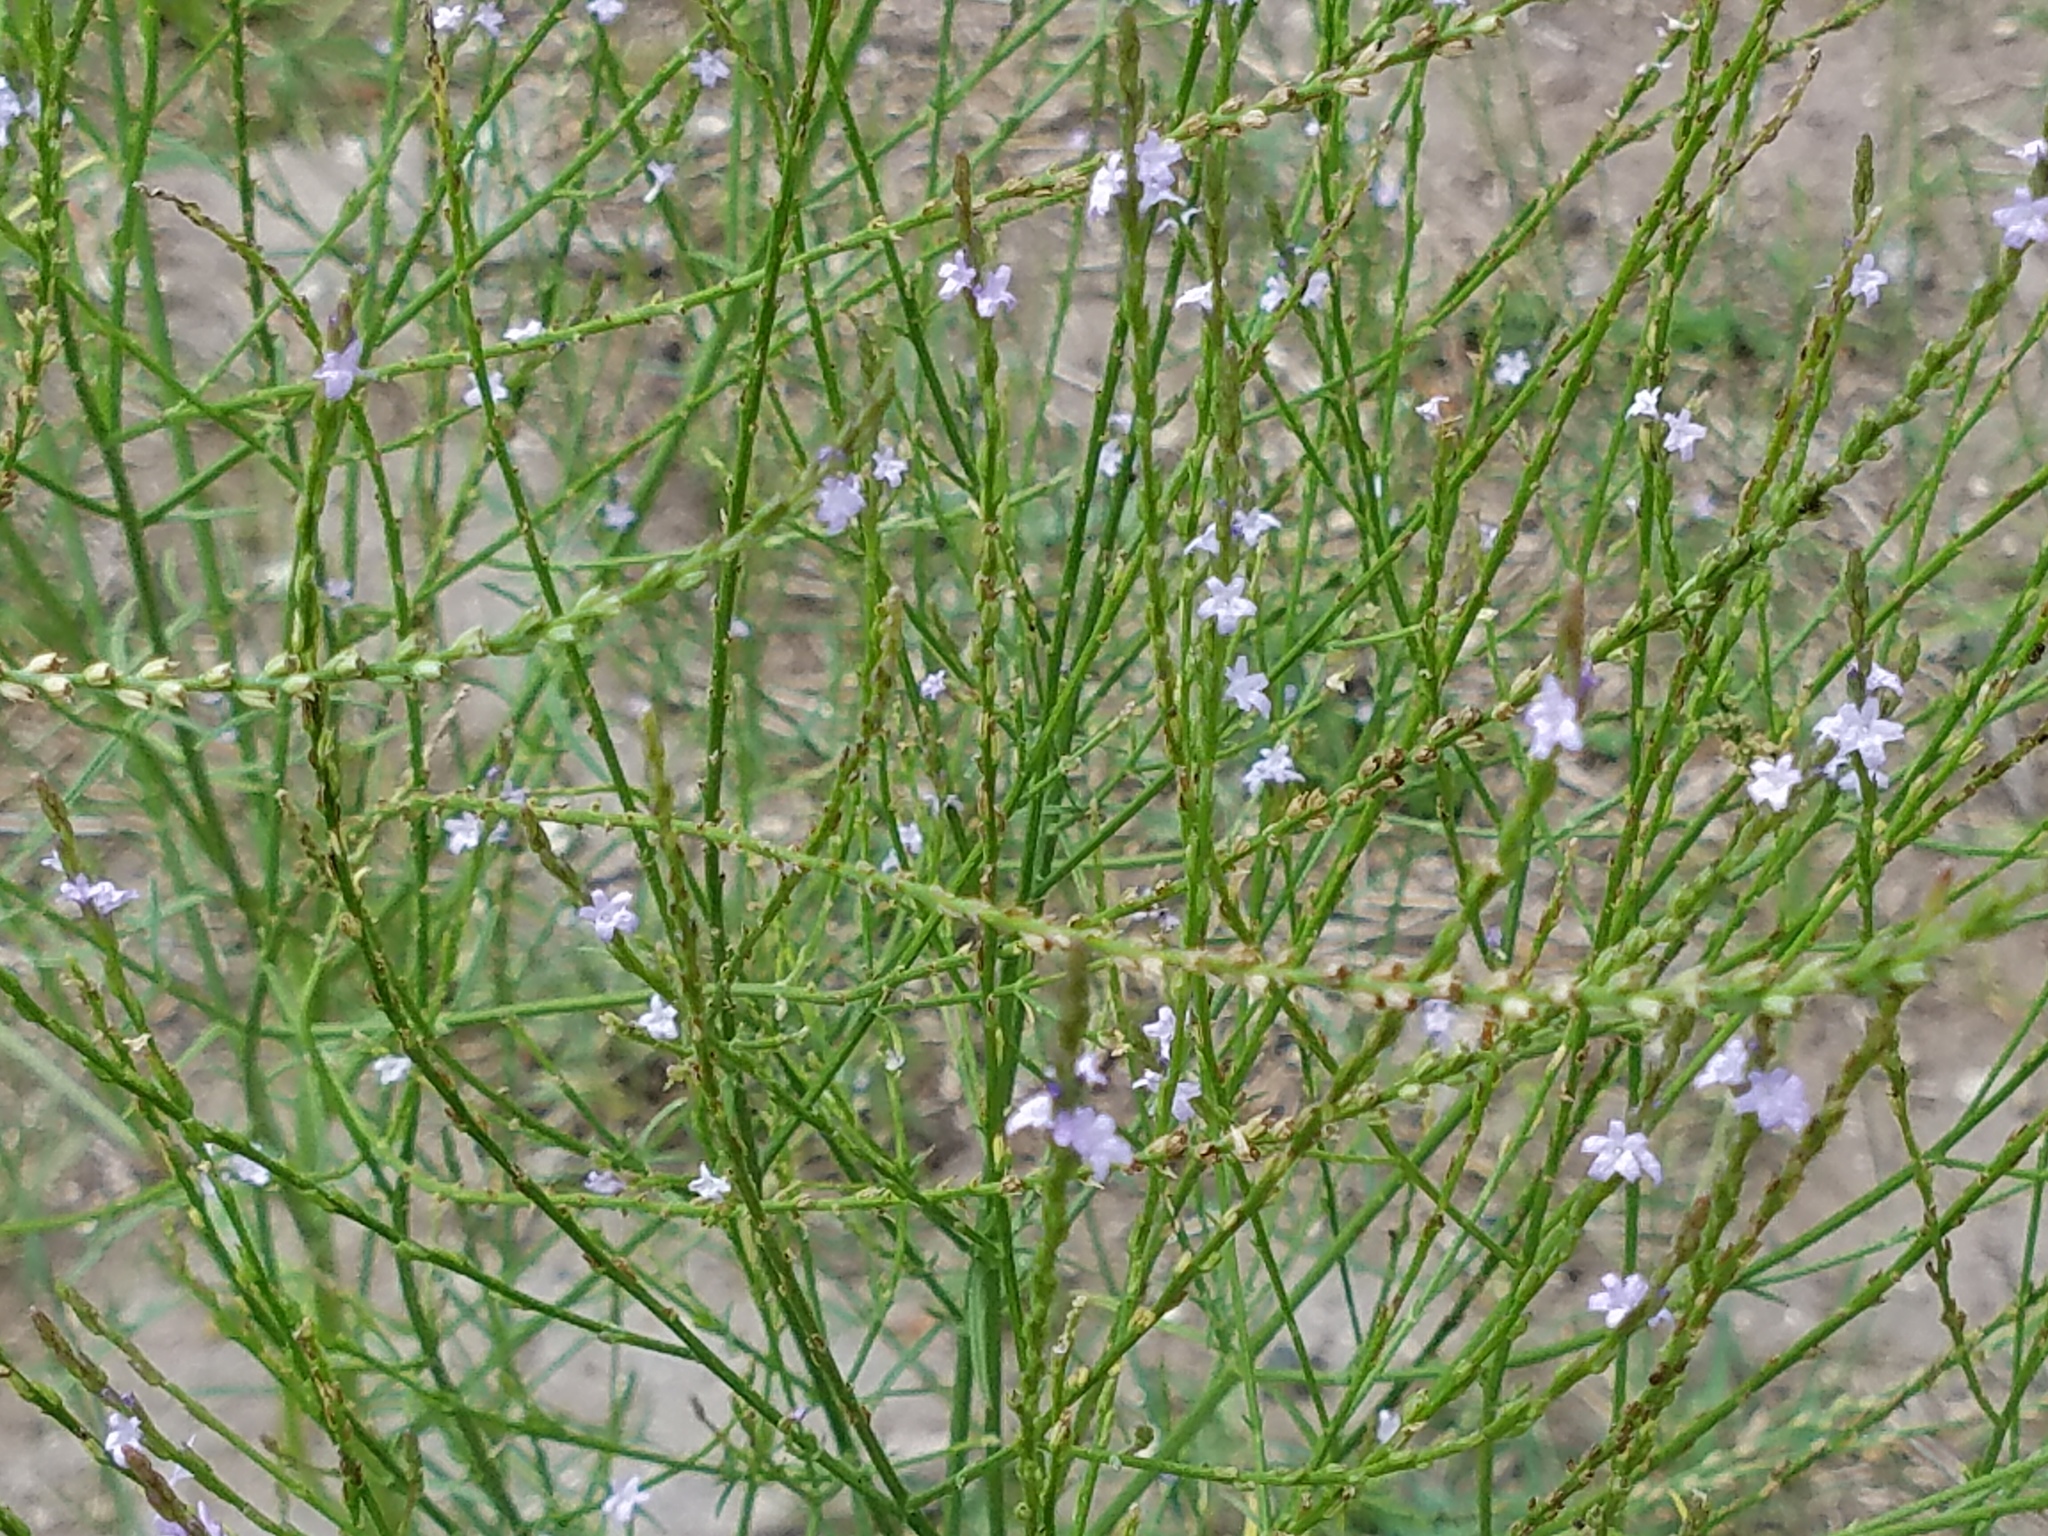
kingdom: Plantae
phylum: Tracheophyta
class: Magnoliopsida
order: Lamiales
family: Verbenaceae
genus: Verbena
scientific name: Verbena halei
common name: Texas vervain
